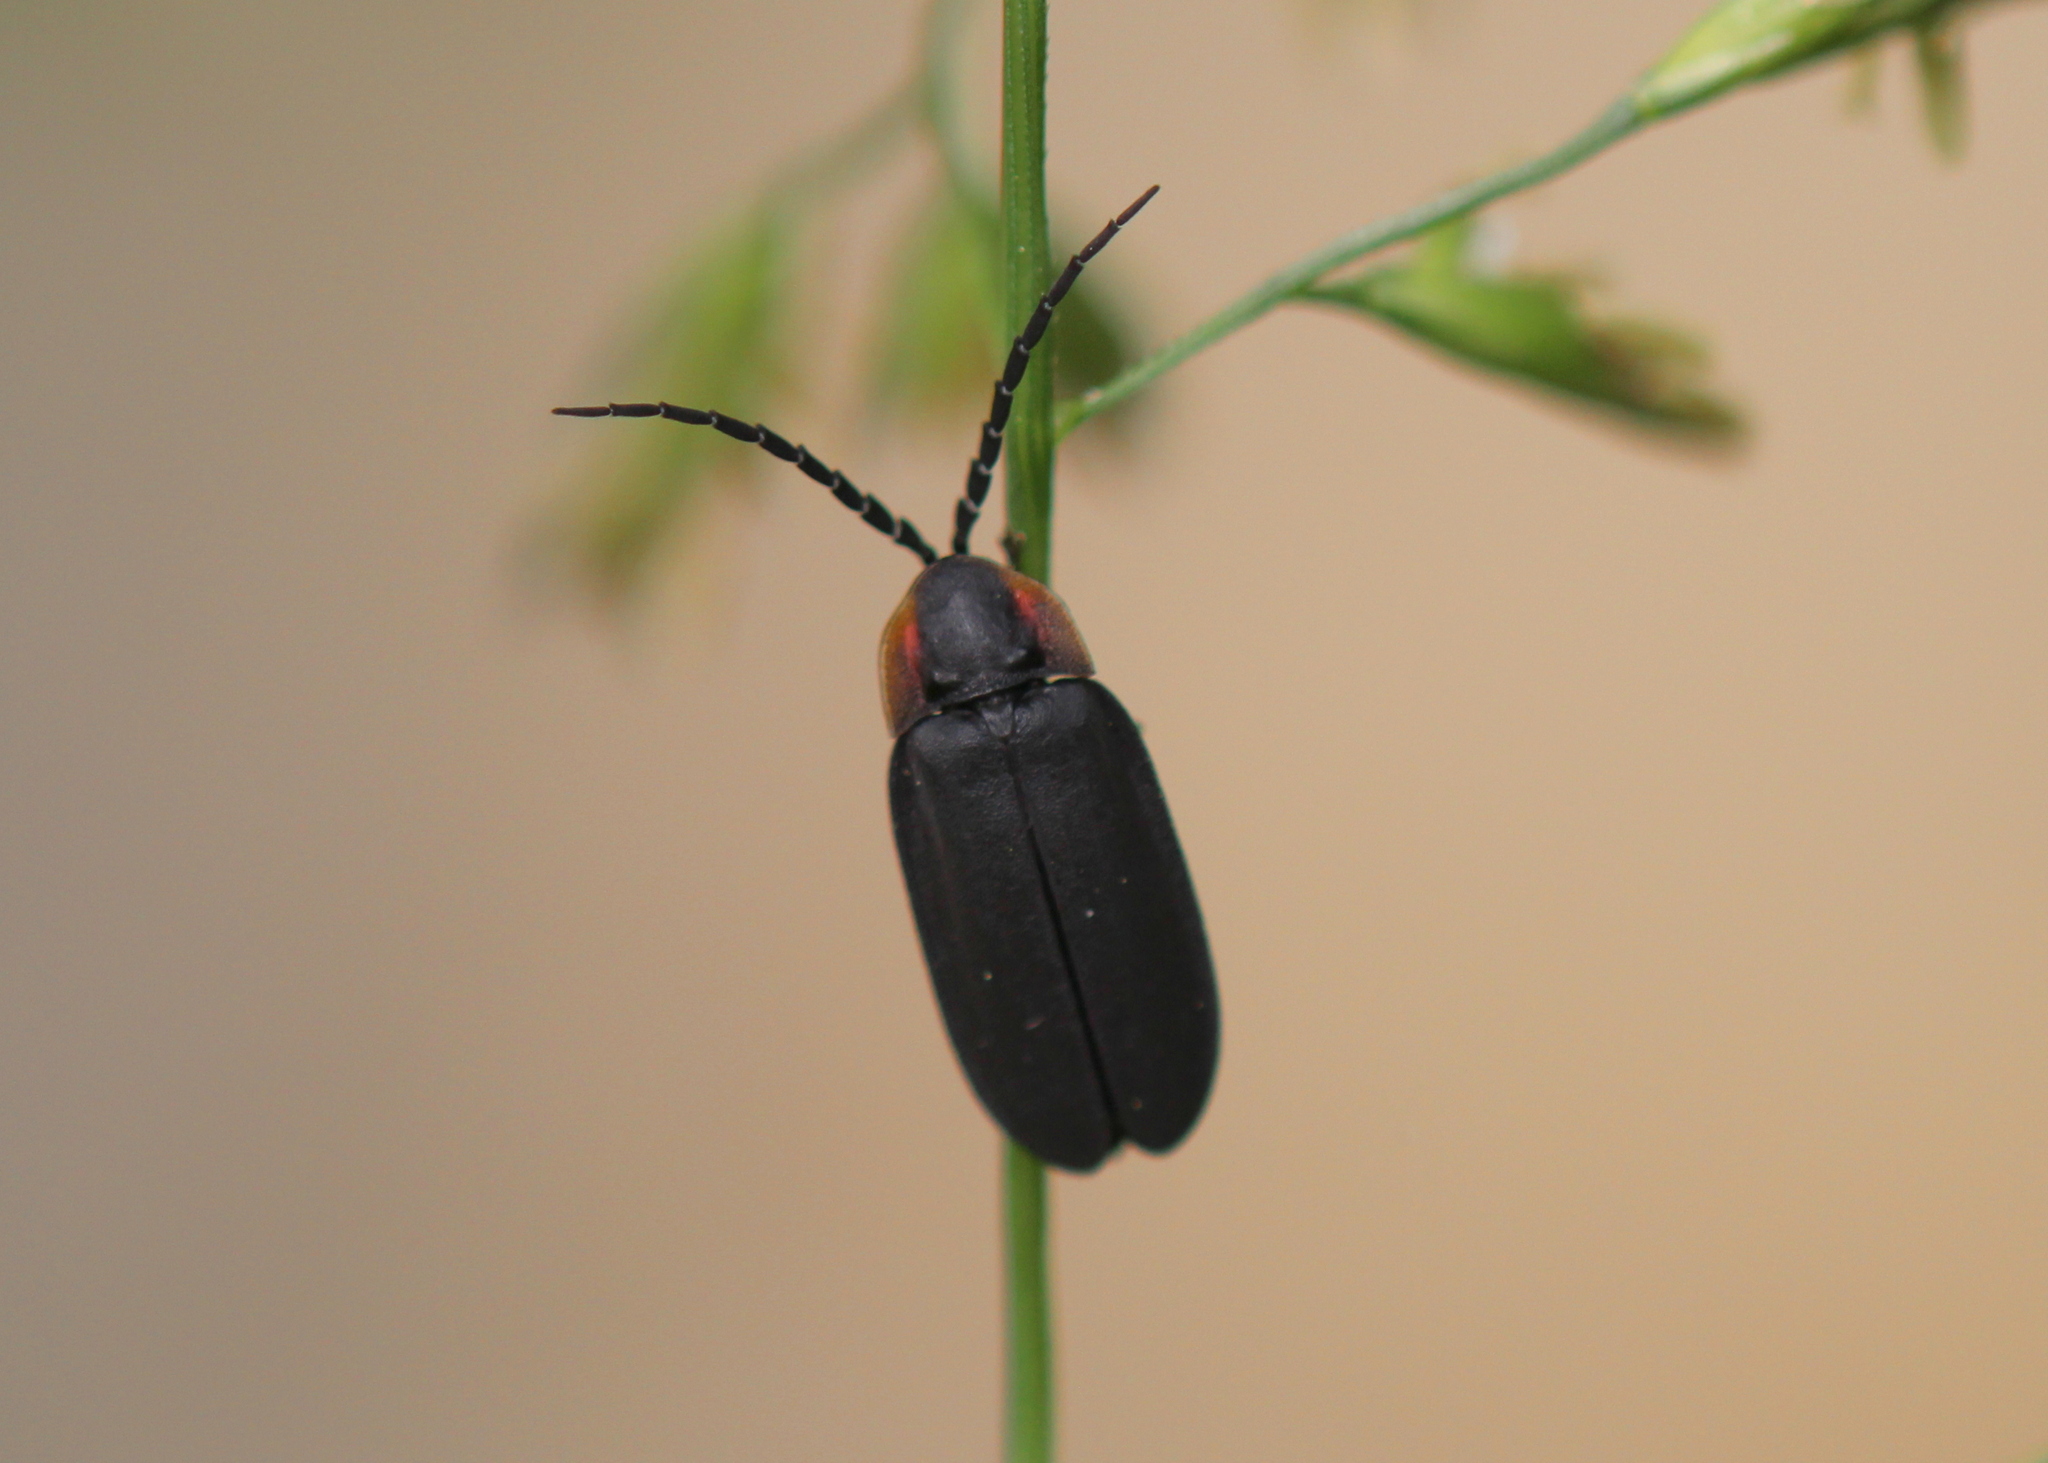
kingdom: Animalia
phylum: Arthropoda
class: Insecta
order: Coleoptera
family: Lampyridae
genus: Lucidota
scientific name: Lucidota atra
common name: Black firefly
